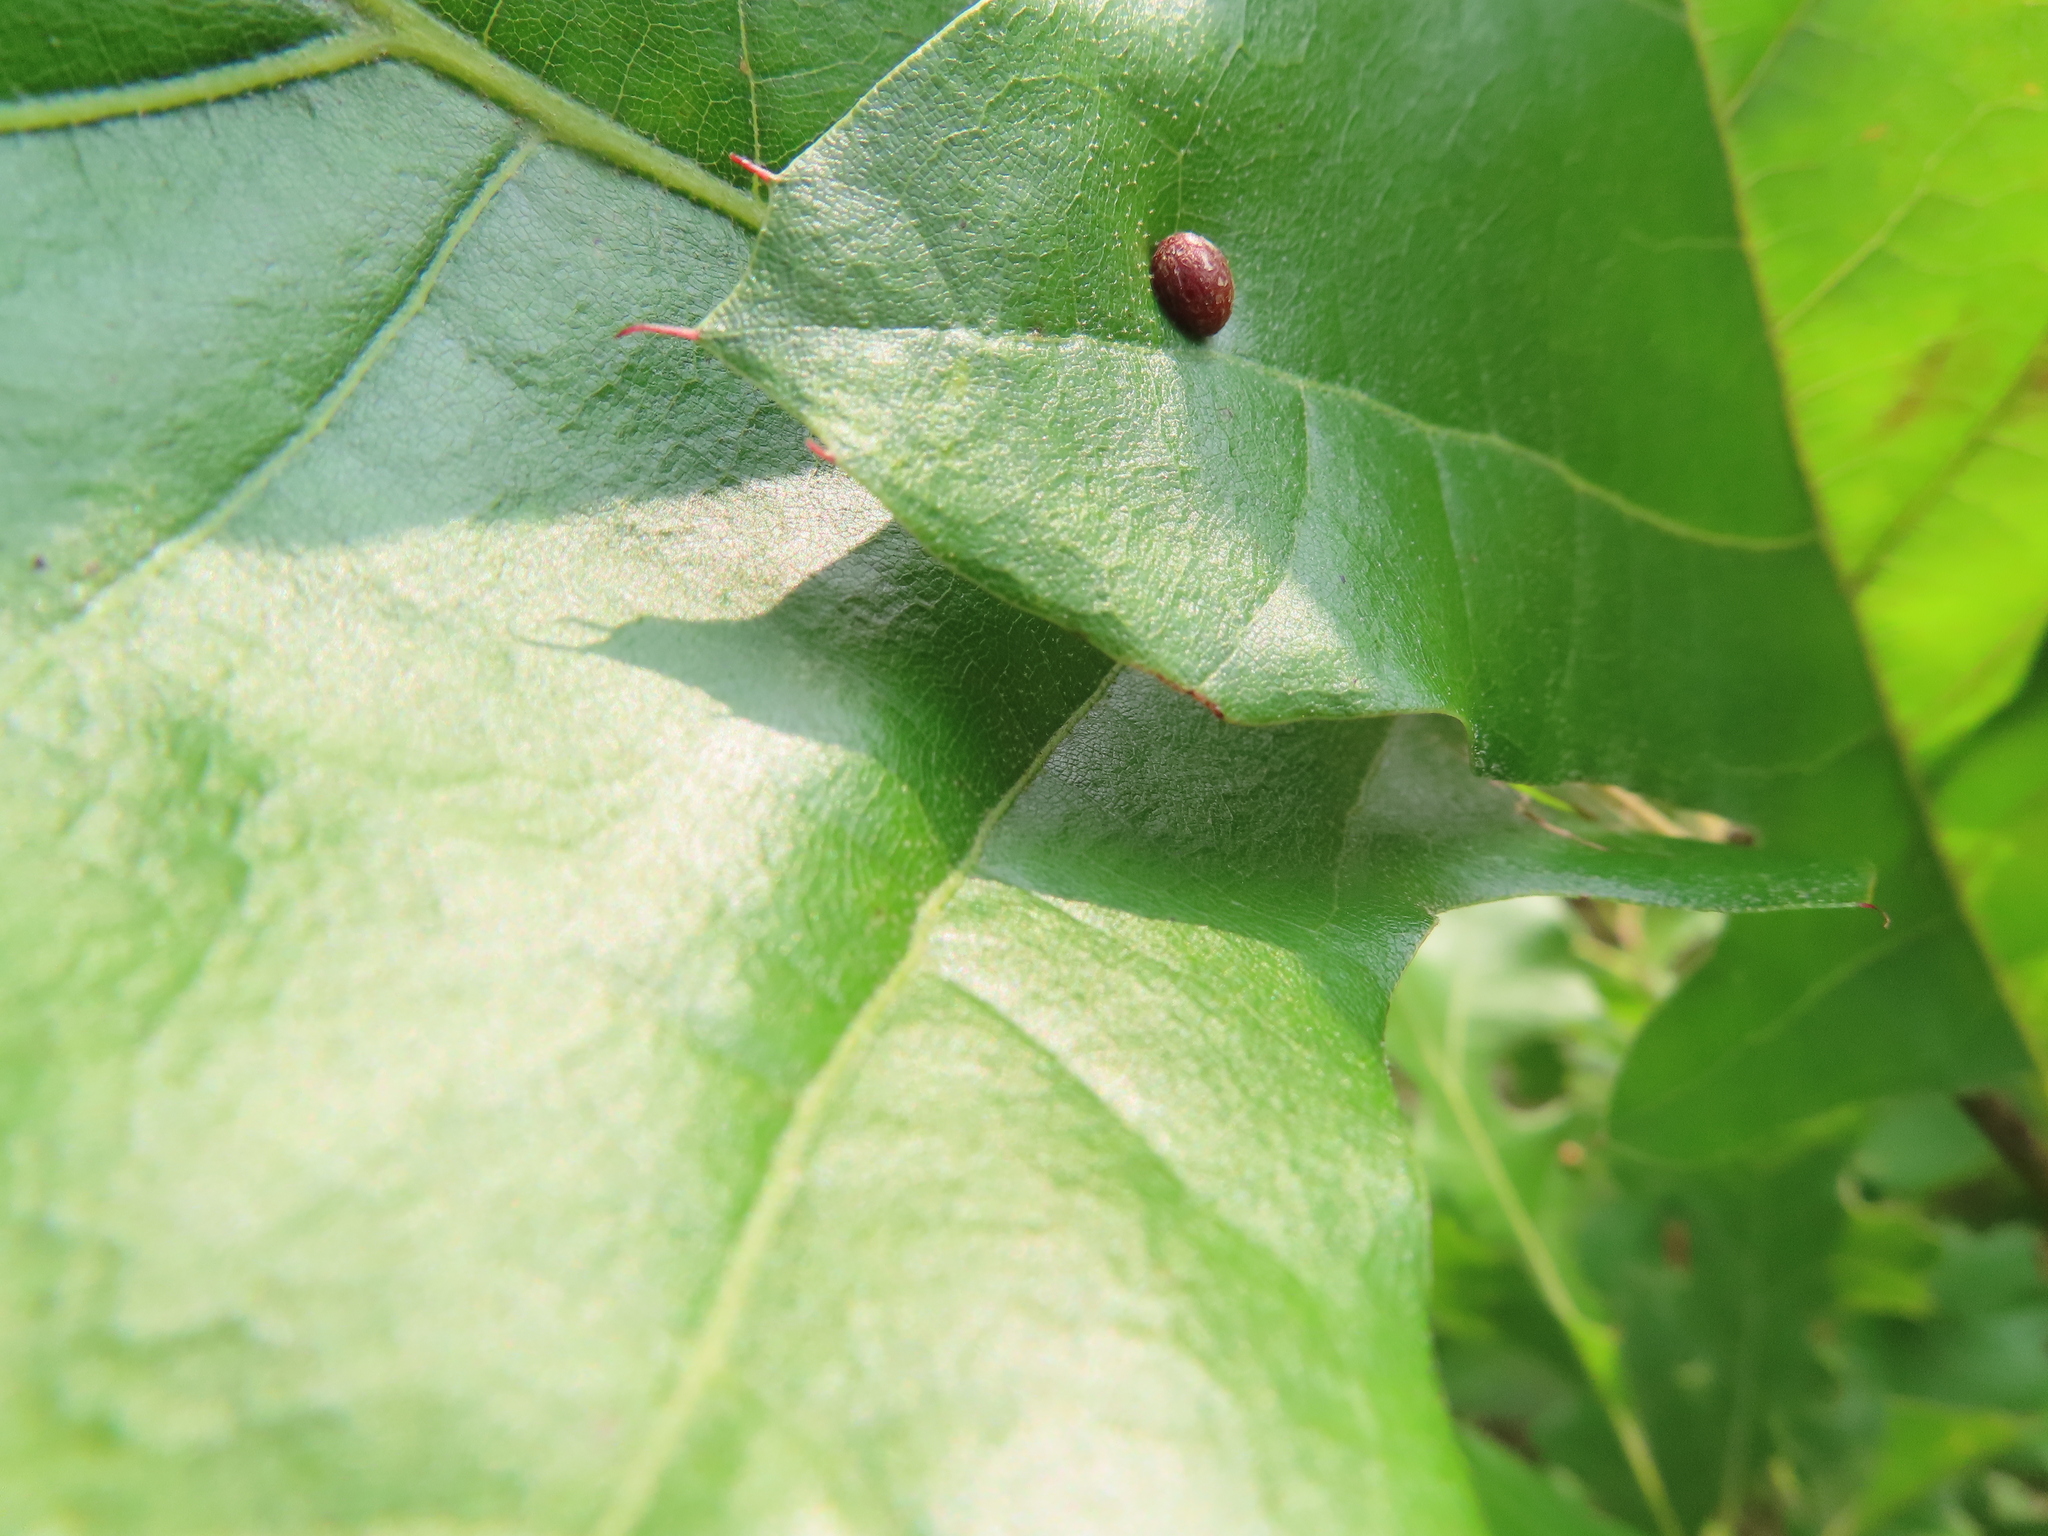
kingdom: Animalia
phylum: Arthropoda
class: Insecta
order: Diptera
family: Cecidomyiidae
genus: Polystepha
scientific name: Polystepha pilulae
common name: Oak leaf gall midge
